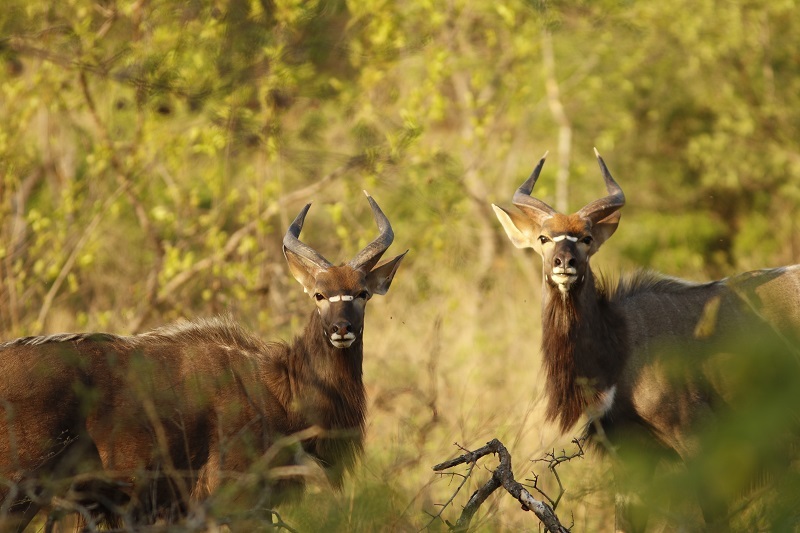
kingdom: Animalia
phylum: Chordata
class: Mammalia
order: Artiodactyla
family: Bovidae
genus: Tragelaphus
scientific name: Tragelaphus angasii
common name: Nyala
